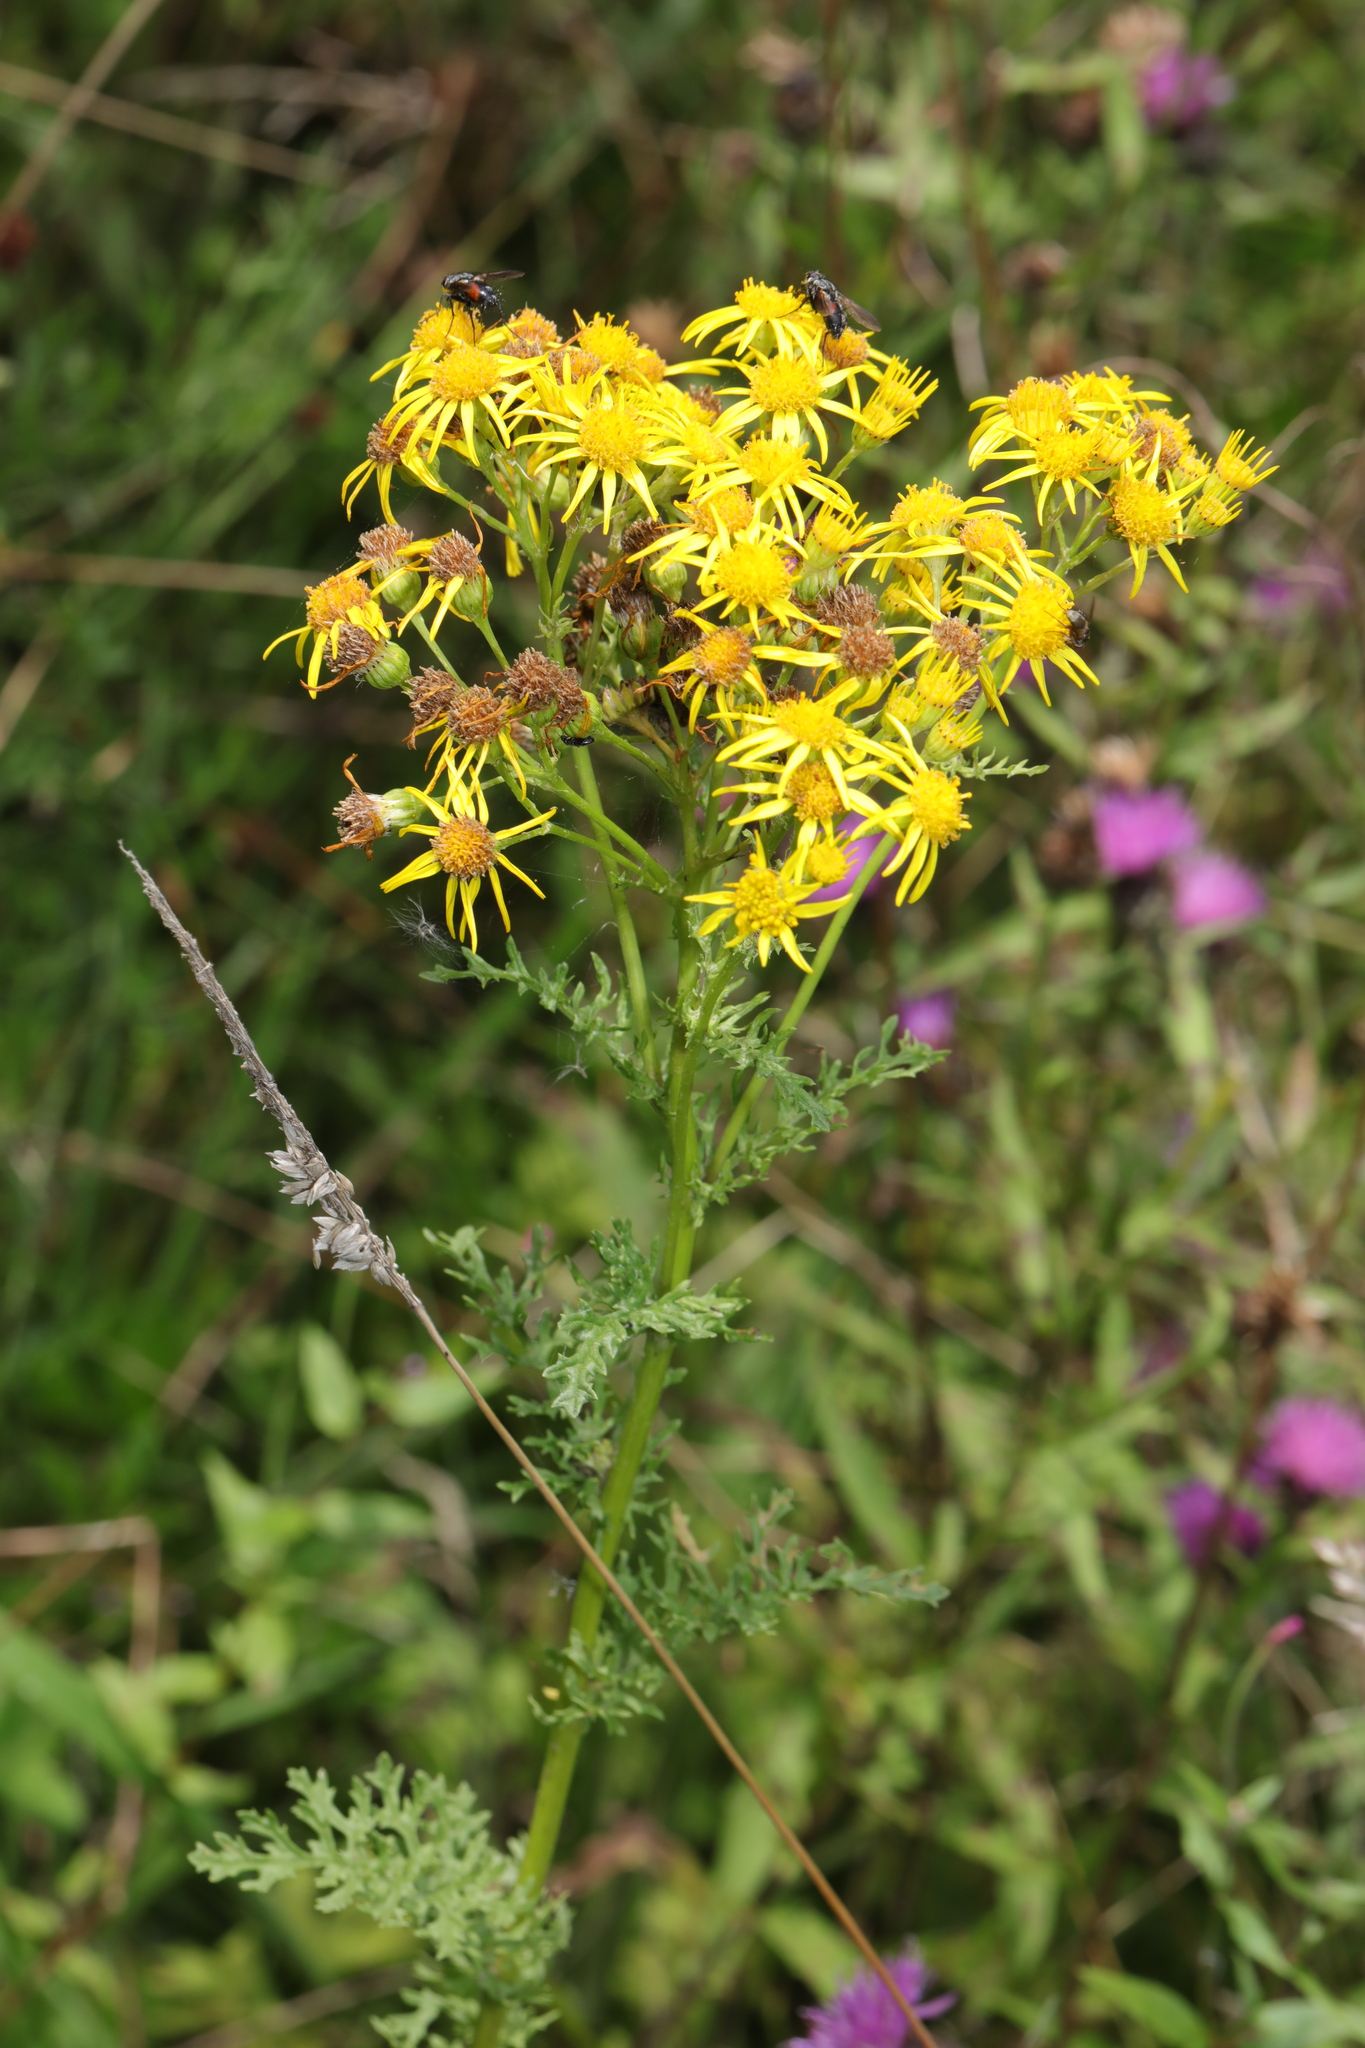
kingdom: Plantae
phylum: Tracheophyta
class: Magnoliopsida
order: Asterales
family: Asteraceae
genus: Jacobaea
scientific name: Jacobaea vulgaris
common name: Stinking willie
